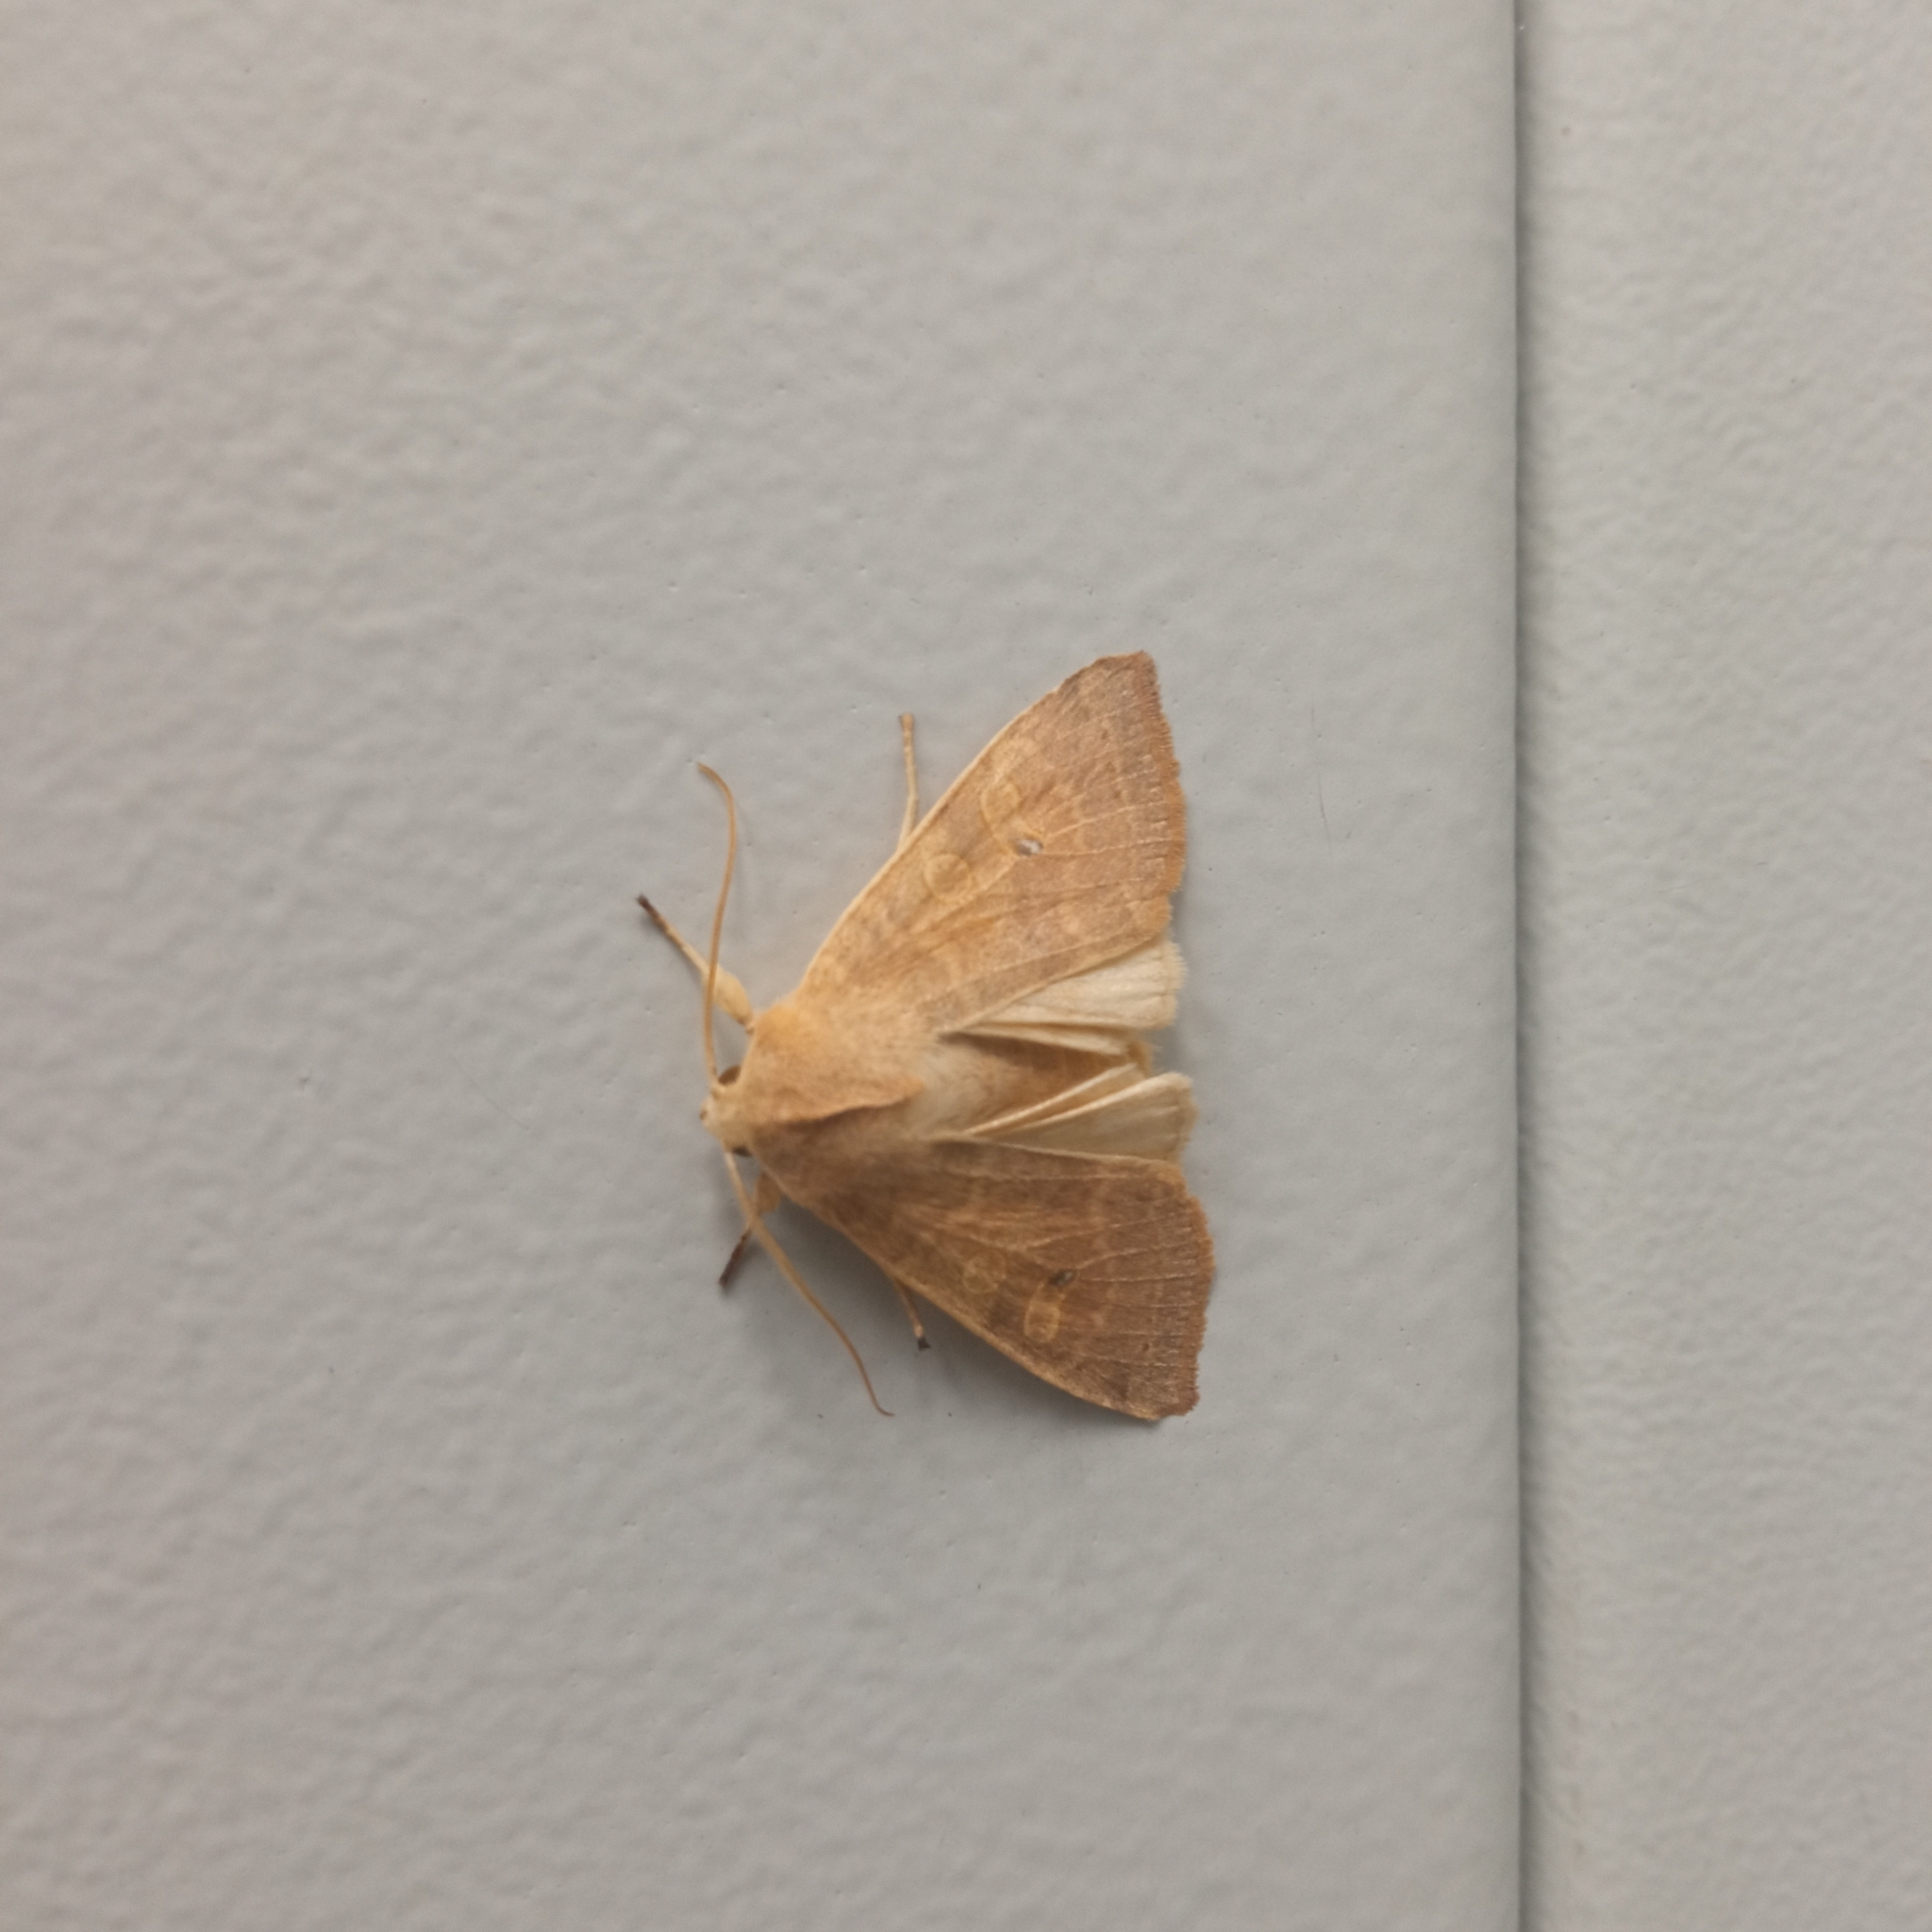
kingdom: Animalia
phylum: Arthropoda
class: Insecta
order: Lepidoptera
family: Noctuidae
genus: Xanthia
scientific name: Xanthia ocellaris
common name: Pale-lemon sallow
